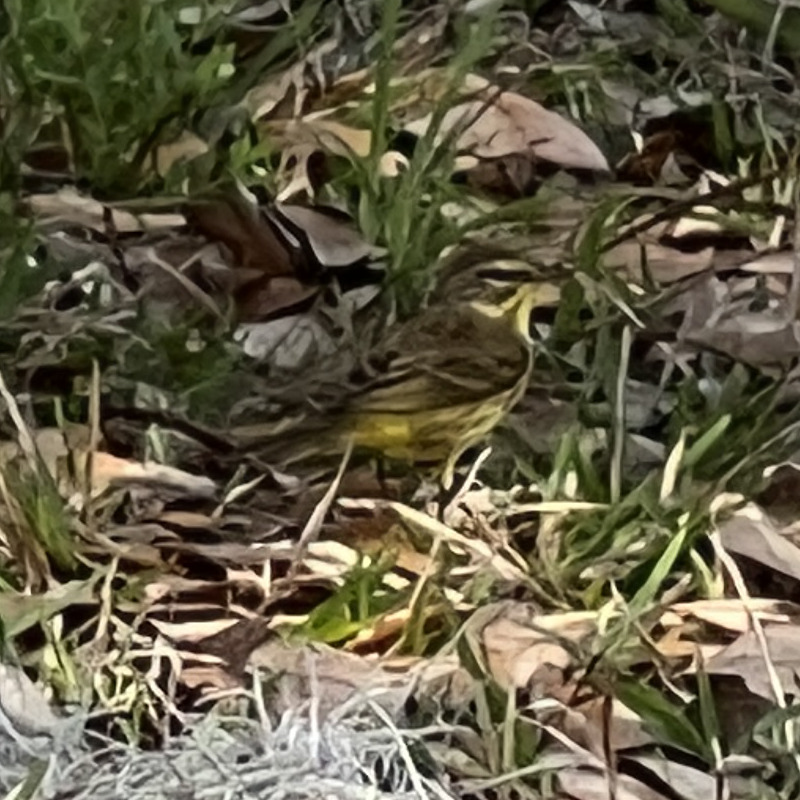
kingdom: Animalia
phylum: Chordata
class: Aves
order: Passeriformes
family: Parulidae
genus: Setophaga
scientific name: Setophaga palmarum
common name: Palm warbler
